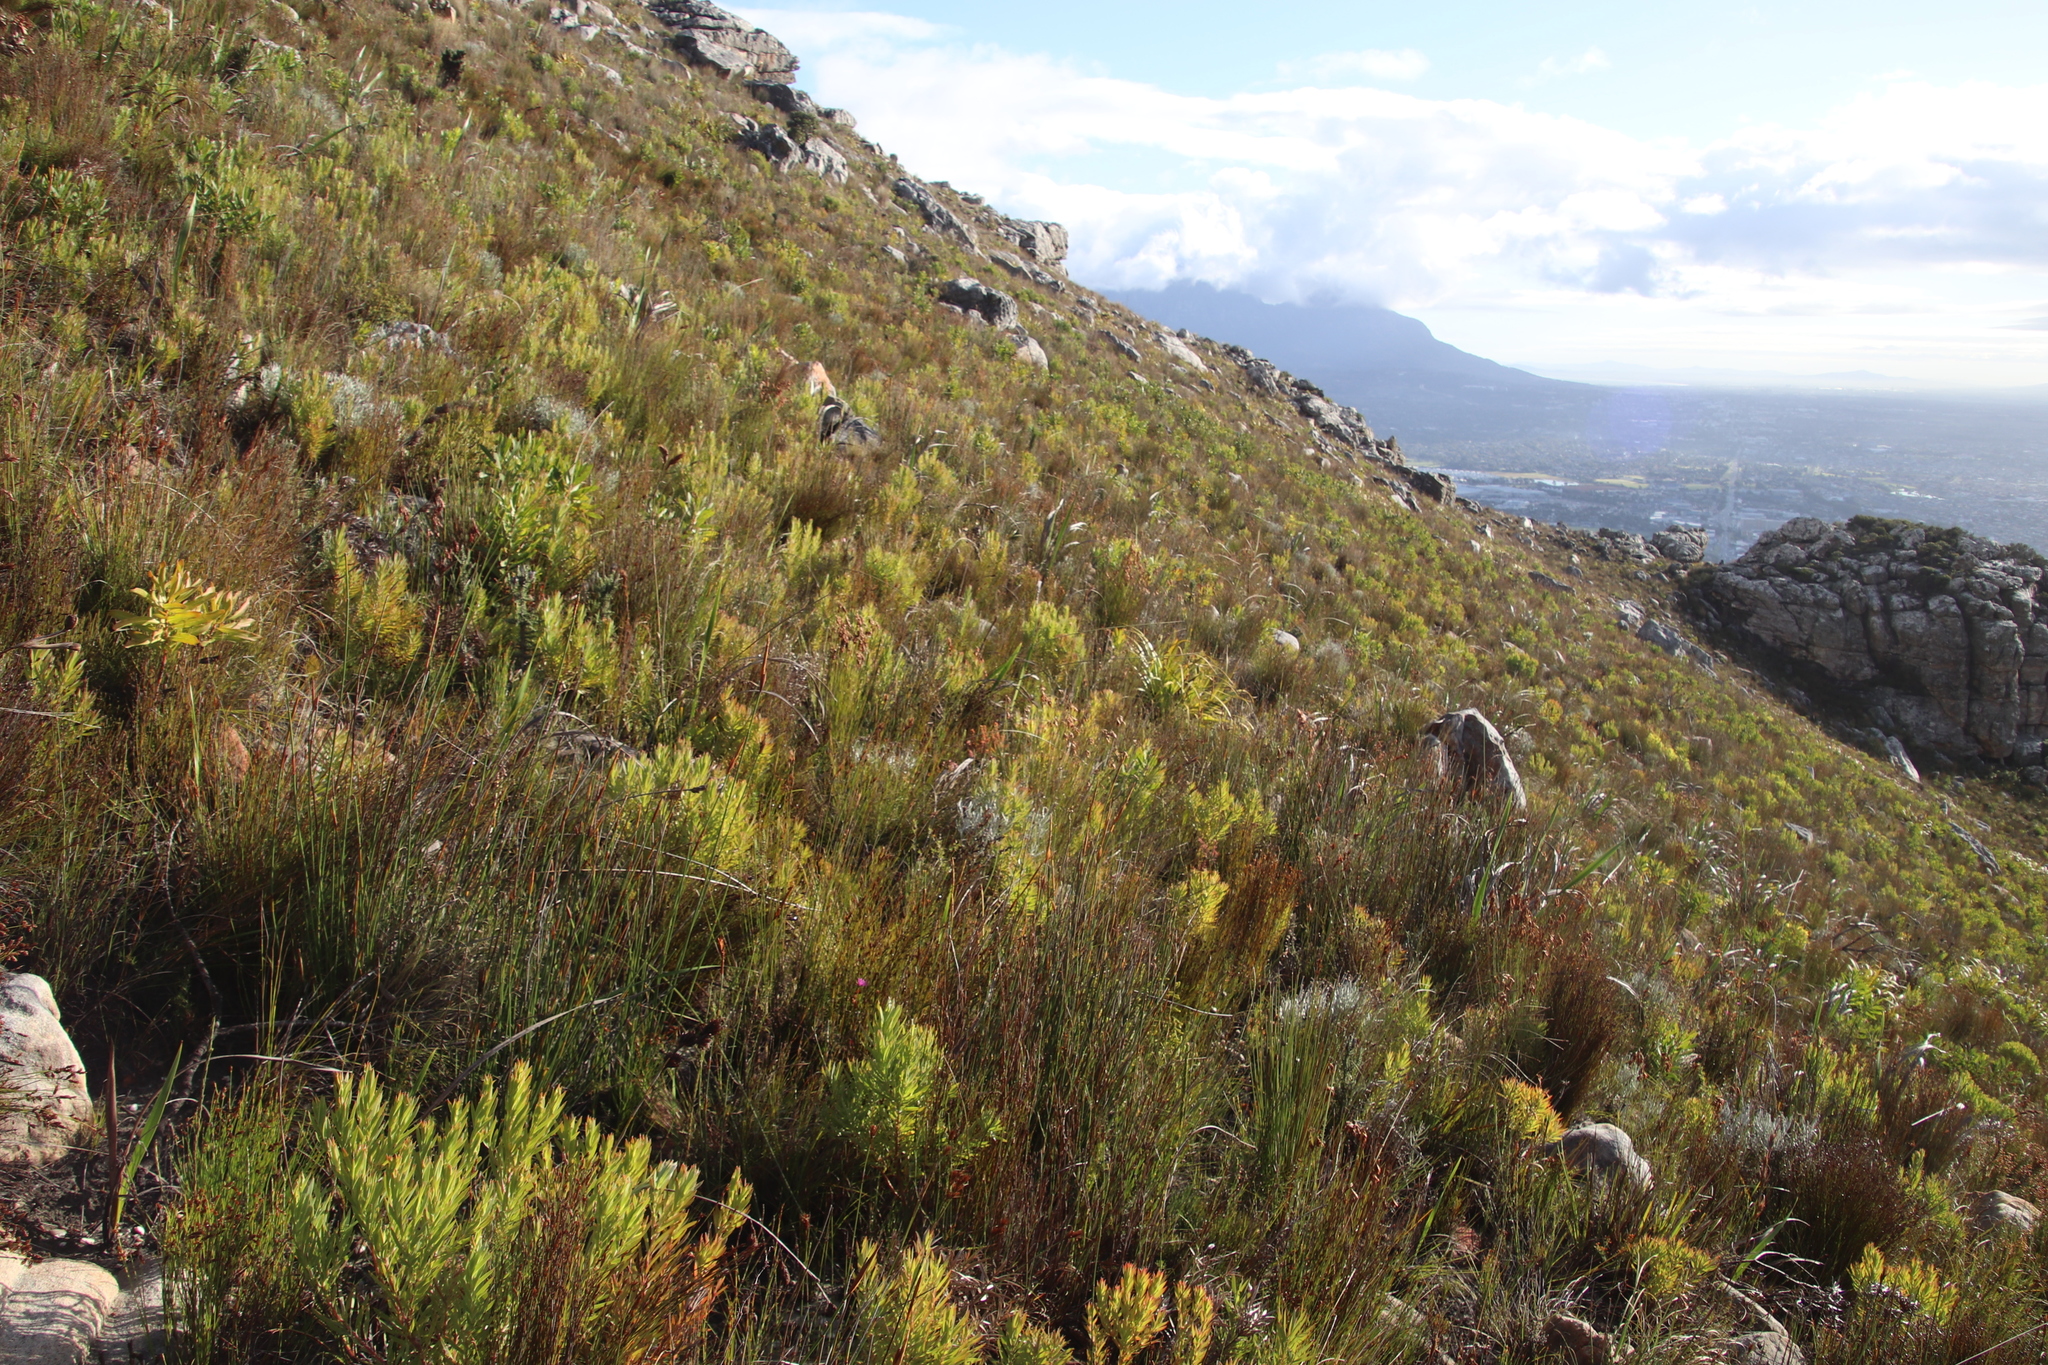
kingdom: Plantae
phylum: Tracheophyta
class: Magnoliopsida
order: Proteales
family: Proteaceae
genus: Leucadendron
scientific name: Leucadendron xanthoconus
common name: Sickle-leaf conebush
